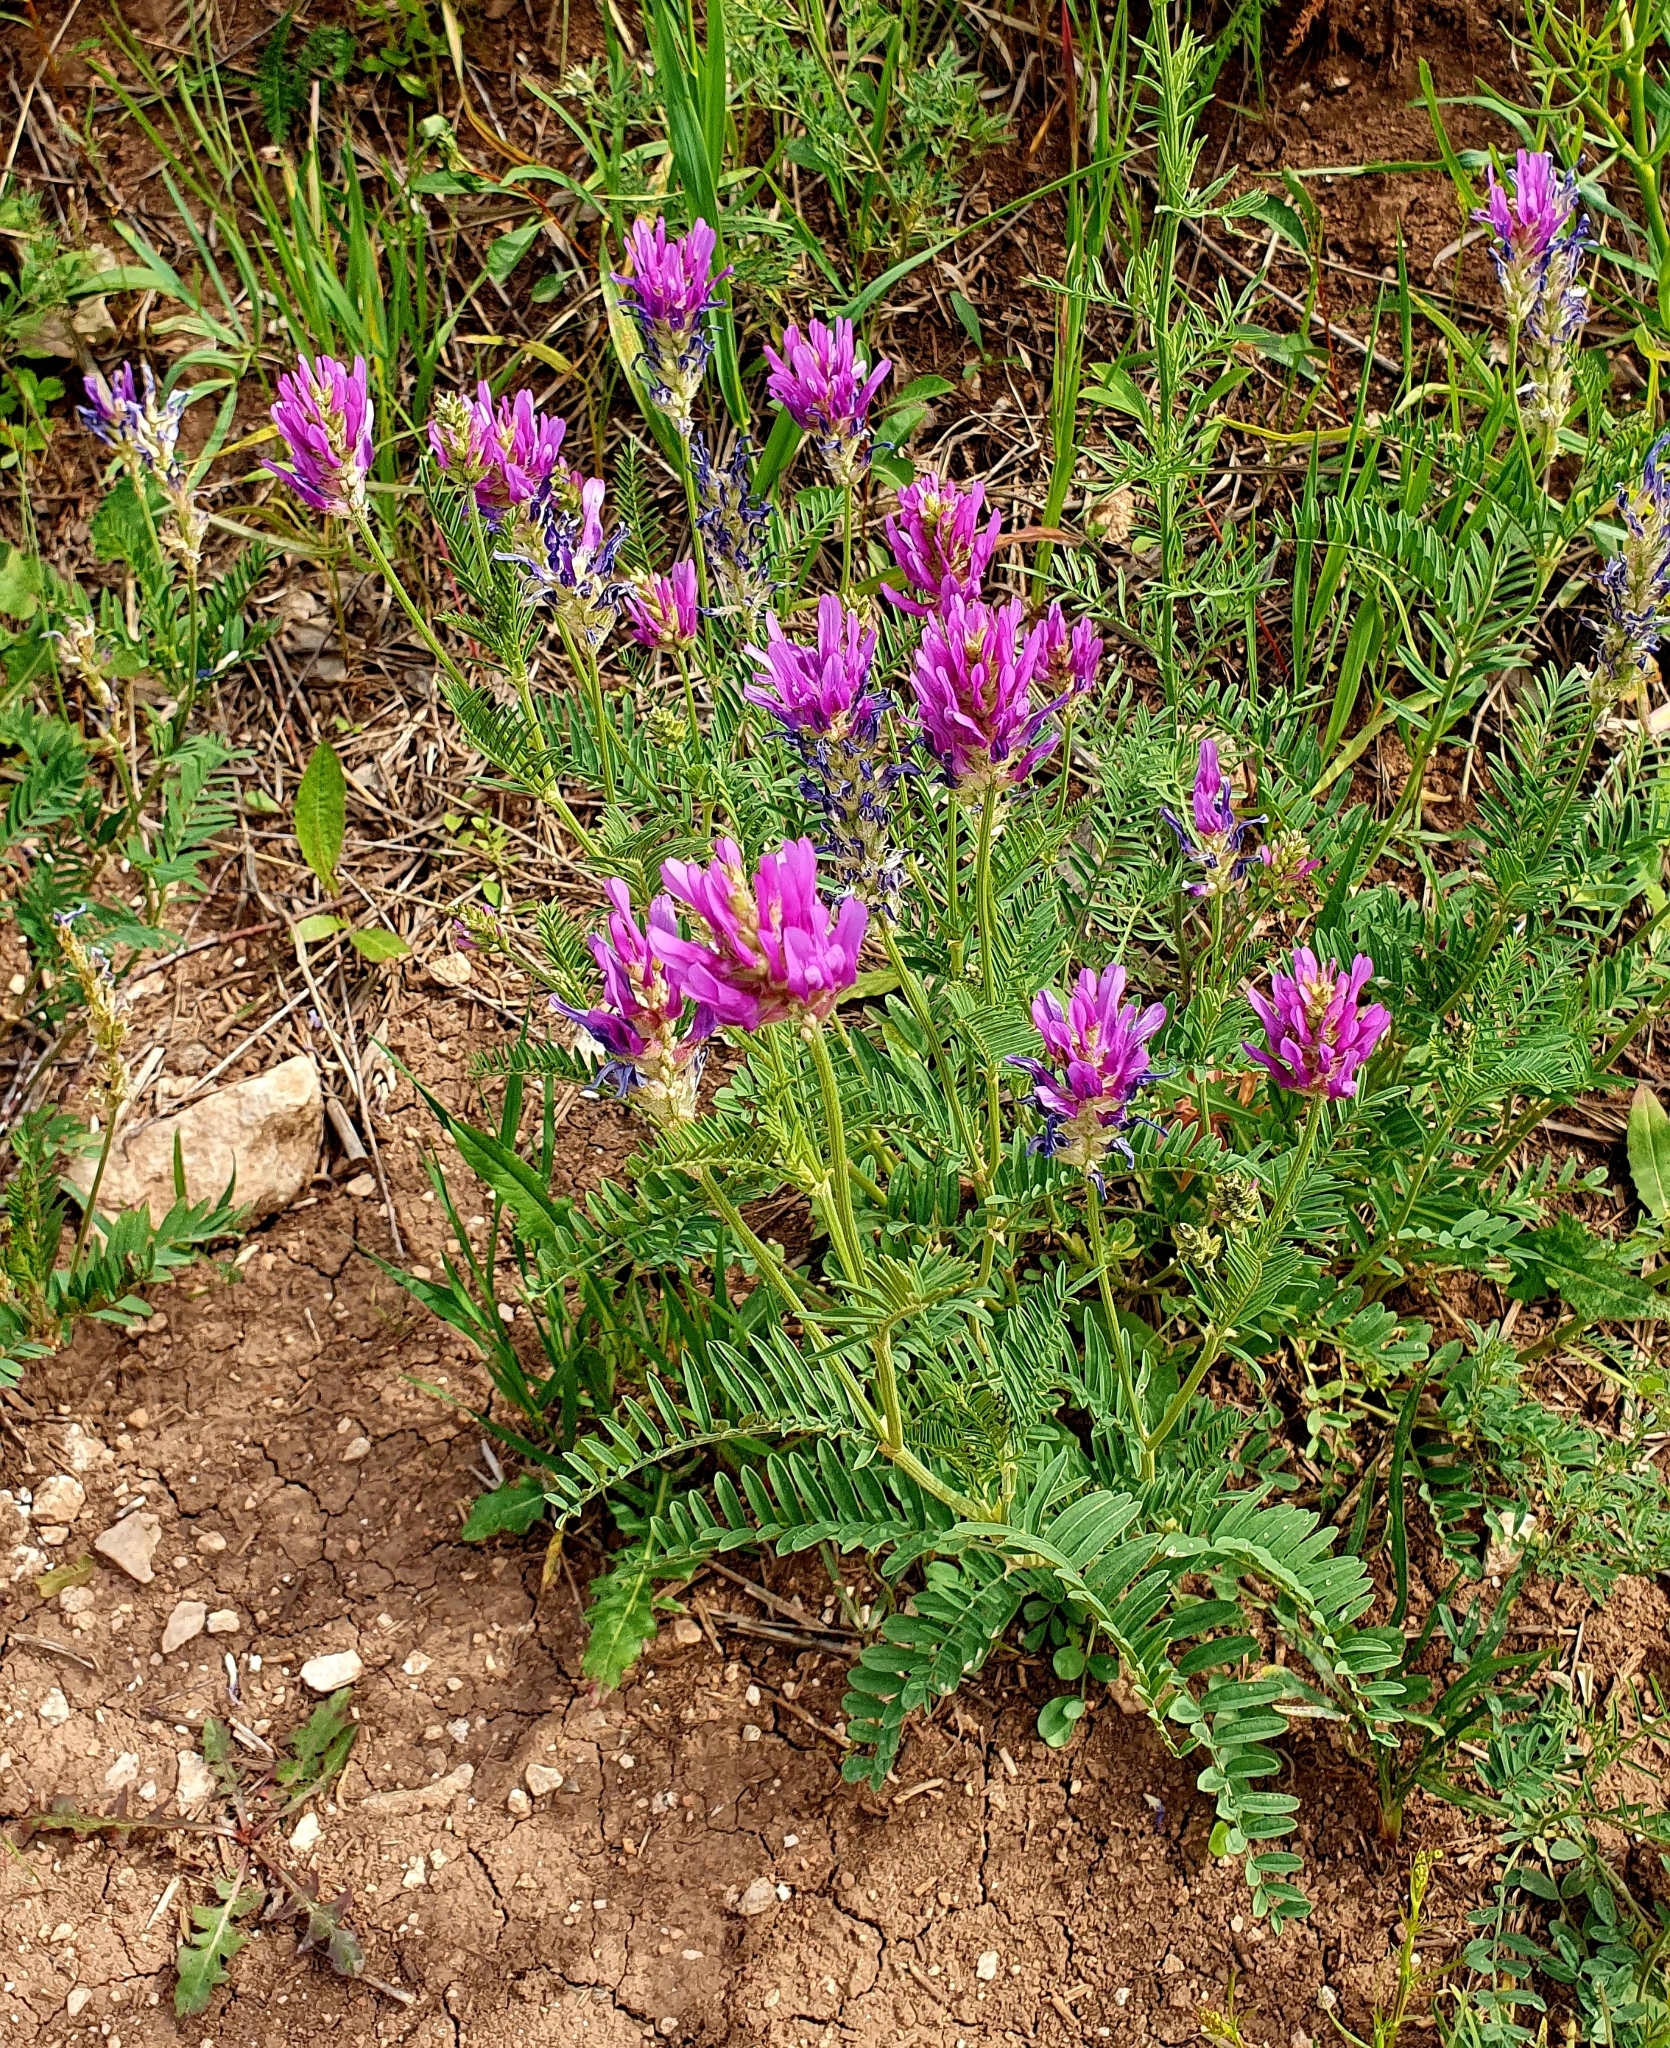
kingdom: Plantae
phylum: Tracheophyta
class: Magnoliopsida
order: Fabales
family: Fabaceae
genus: Astragalus
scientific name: Astragalus onobrychis
